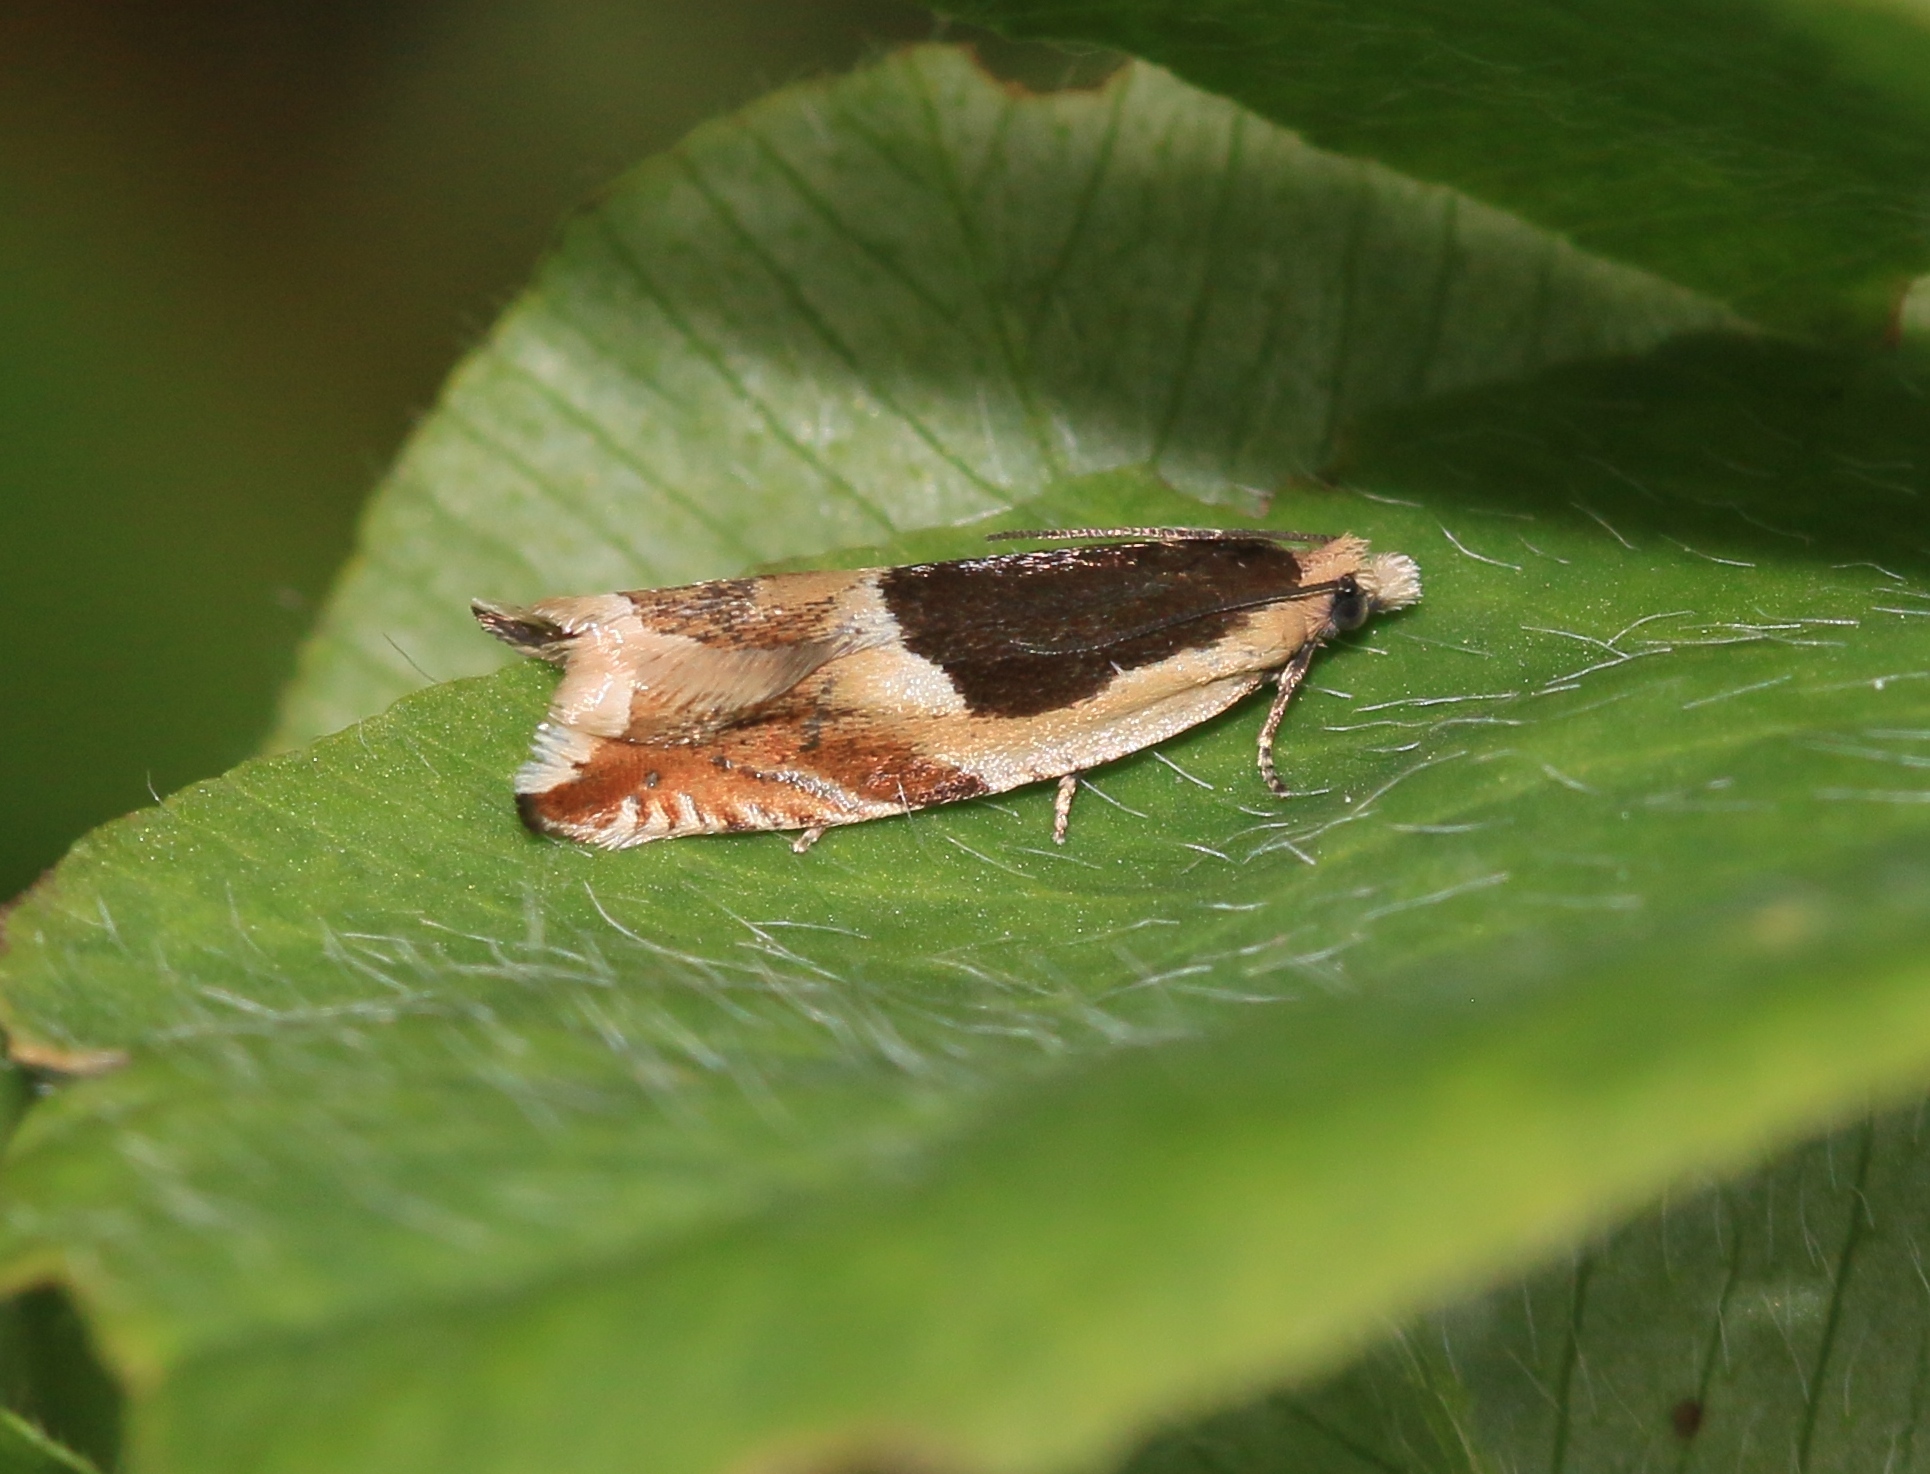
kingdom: Animalia
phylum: Arthropoda
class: Insecta
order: Lepidoptera
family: Tortricidae
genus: Ancylis
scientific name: Ancylis badiana
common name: Common roller
